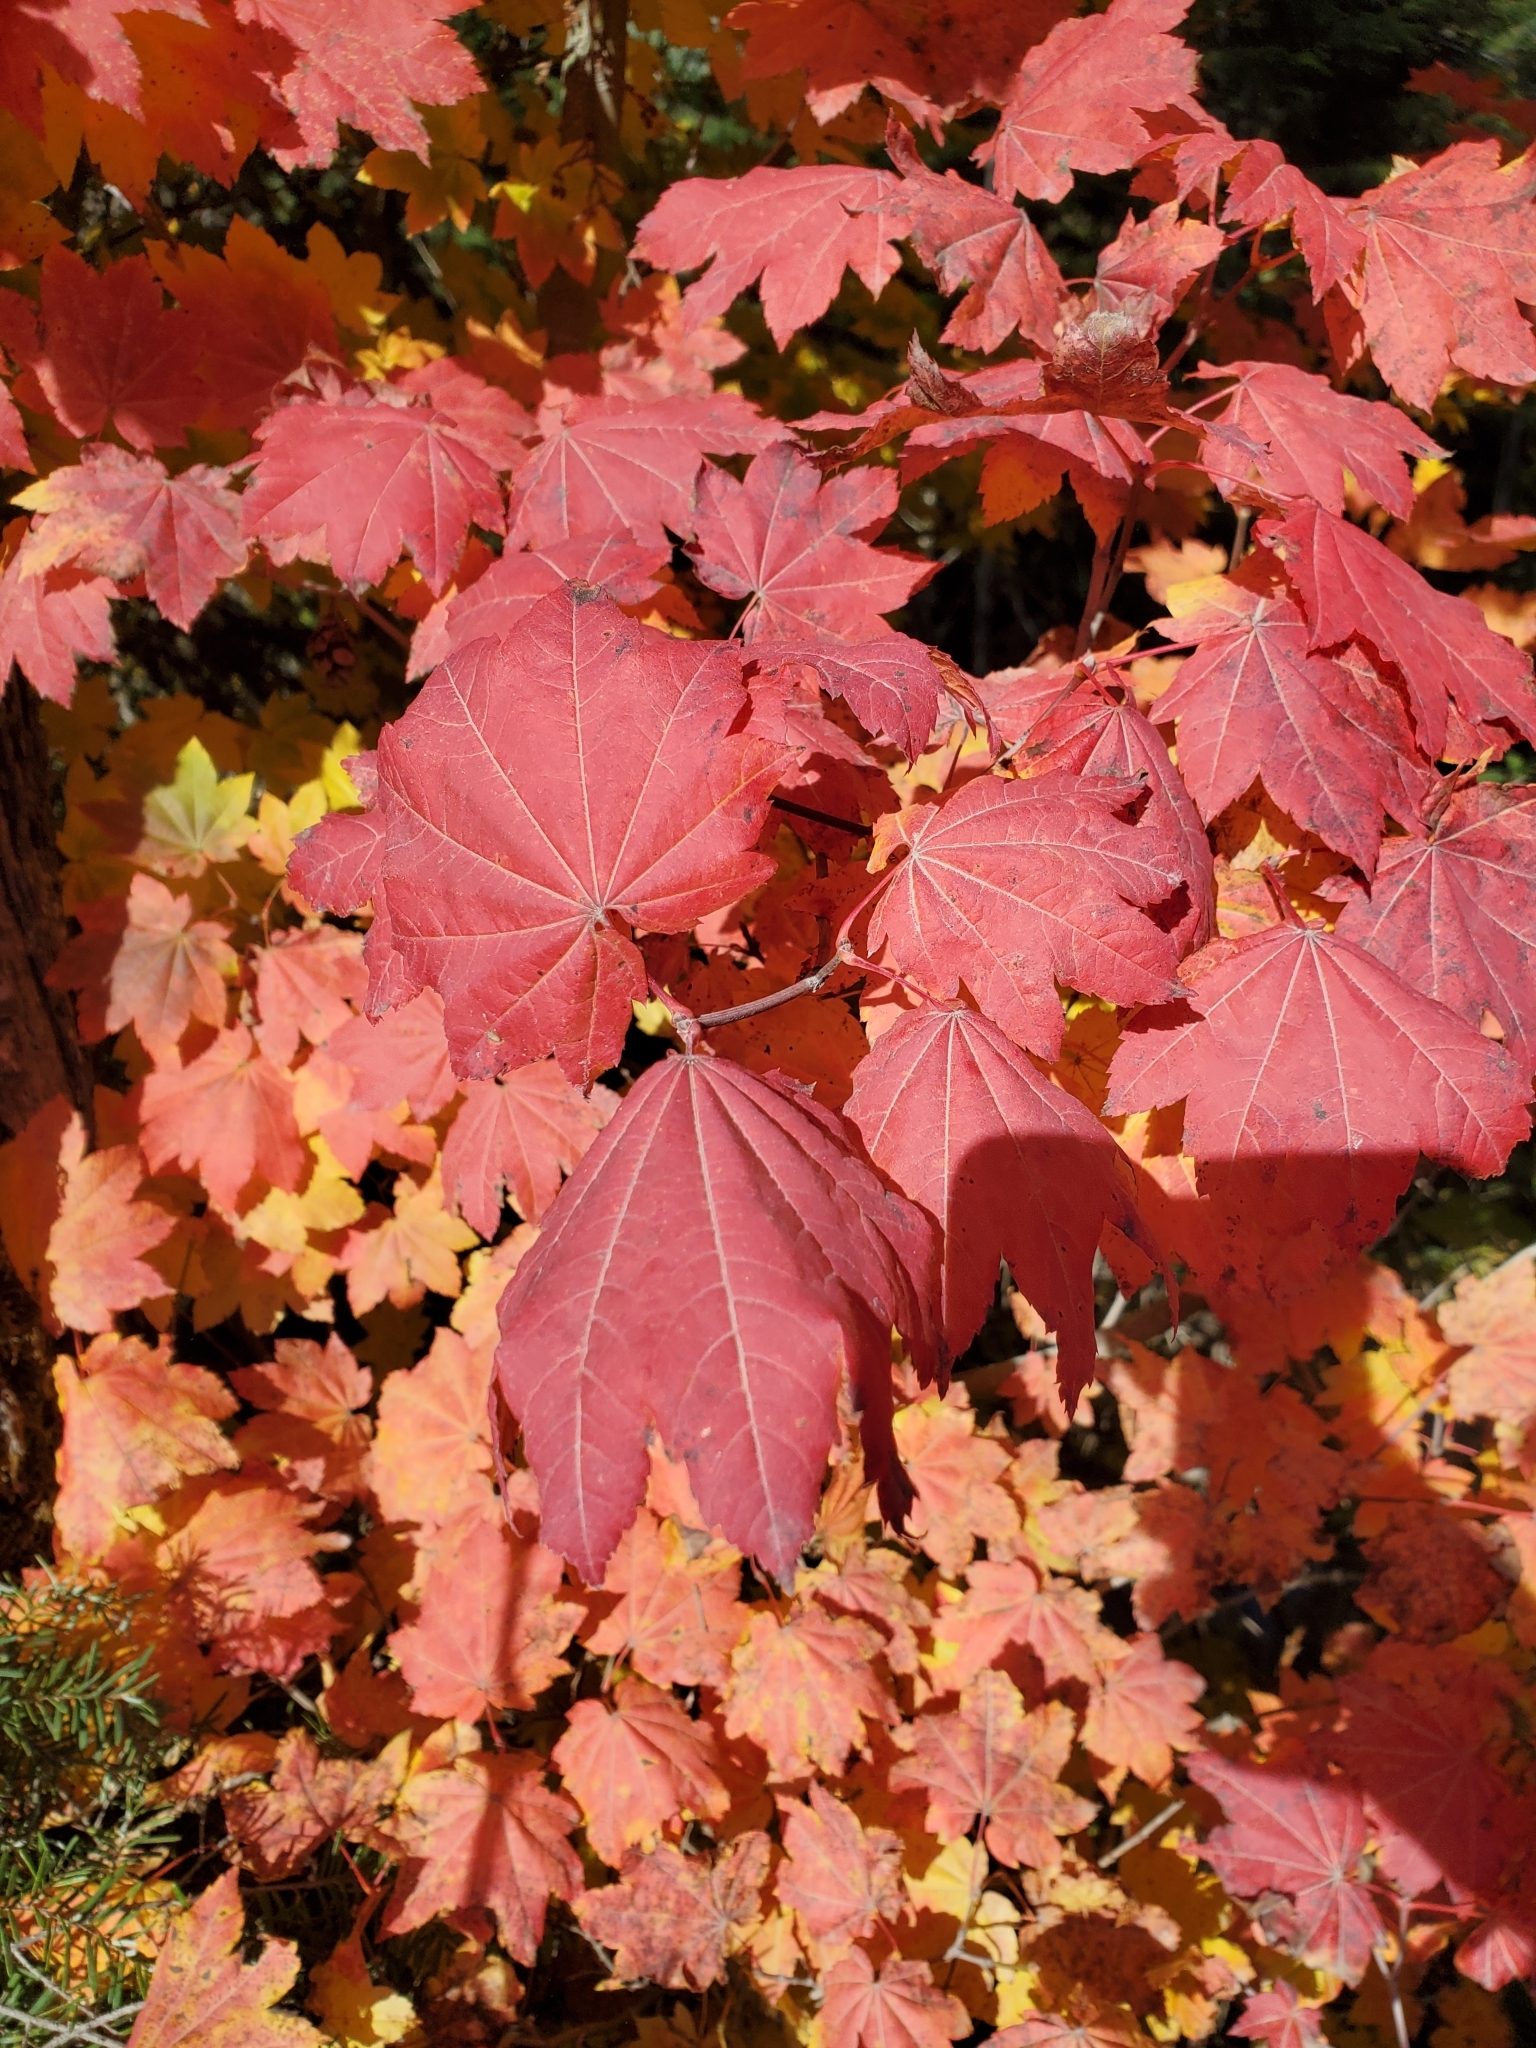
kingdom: Plantae
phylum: Tracheophyta
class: Magnoliopsida
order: Sapindales
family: Sapindaceae
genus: Acer
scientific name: Acer circinatum
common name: Vine maple
